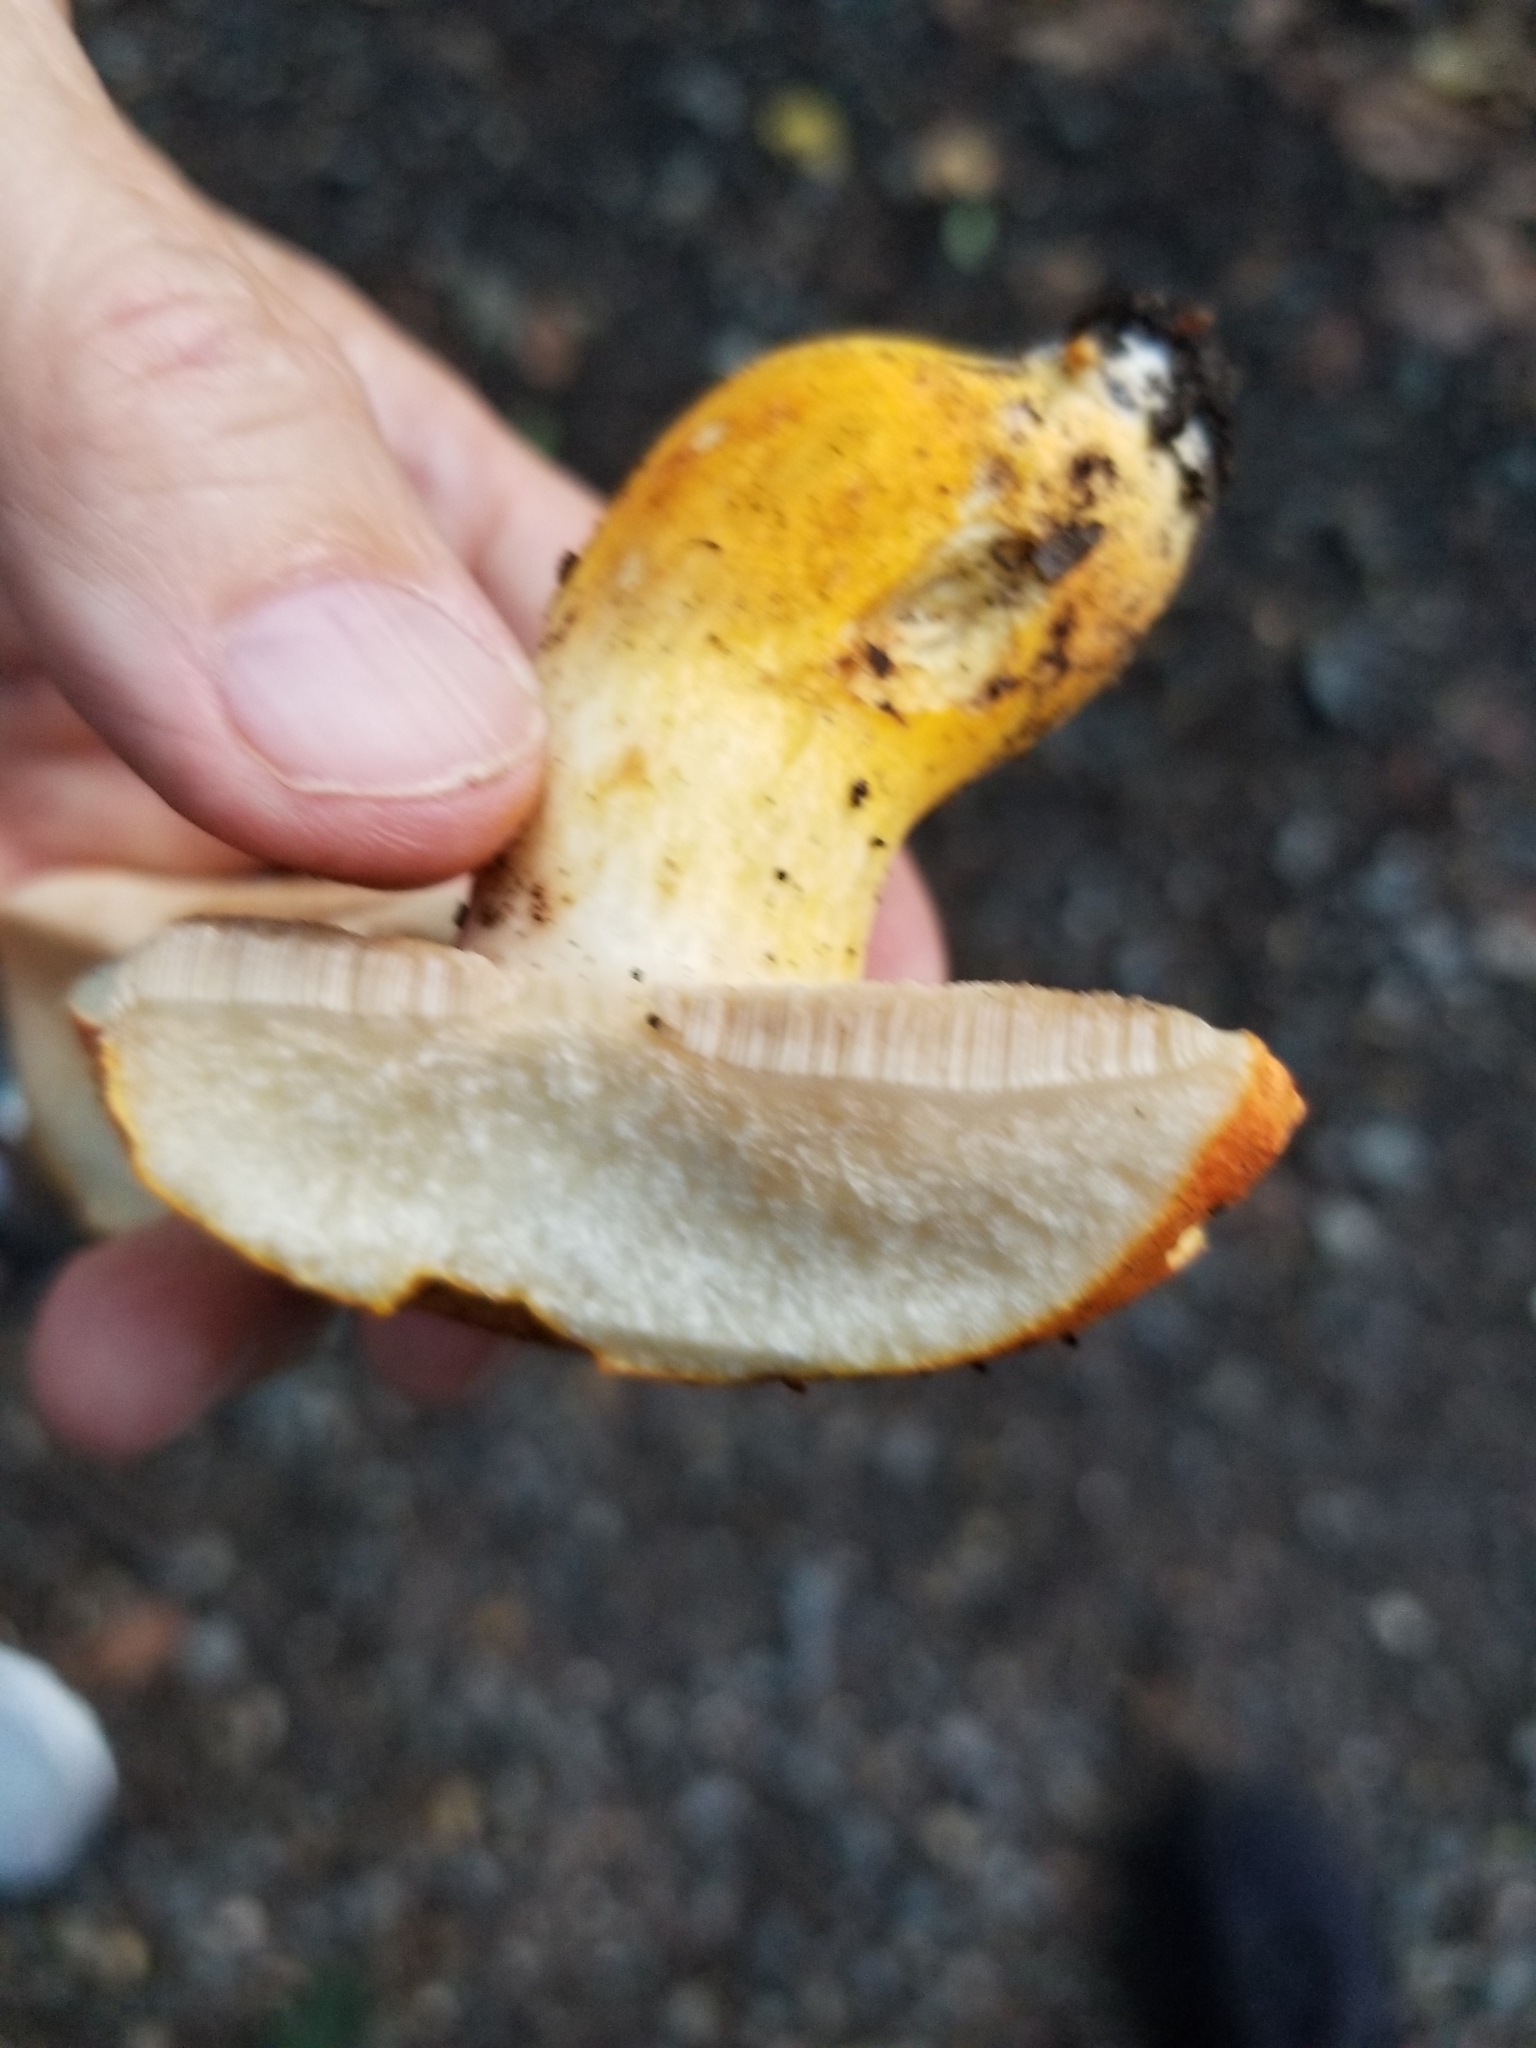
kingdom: Fungi
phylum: Basidiomycota
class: Agaricomycetes
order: Boletales
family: Boletaceae
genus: Tylopilus
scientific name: Tylopilus balloui
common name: Burnt-orange bolete
